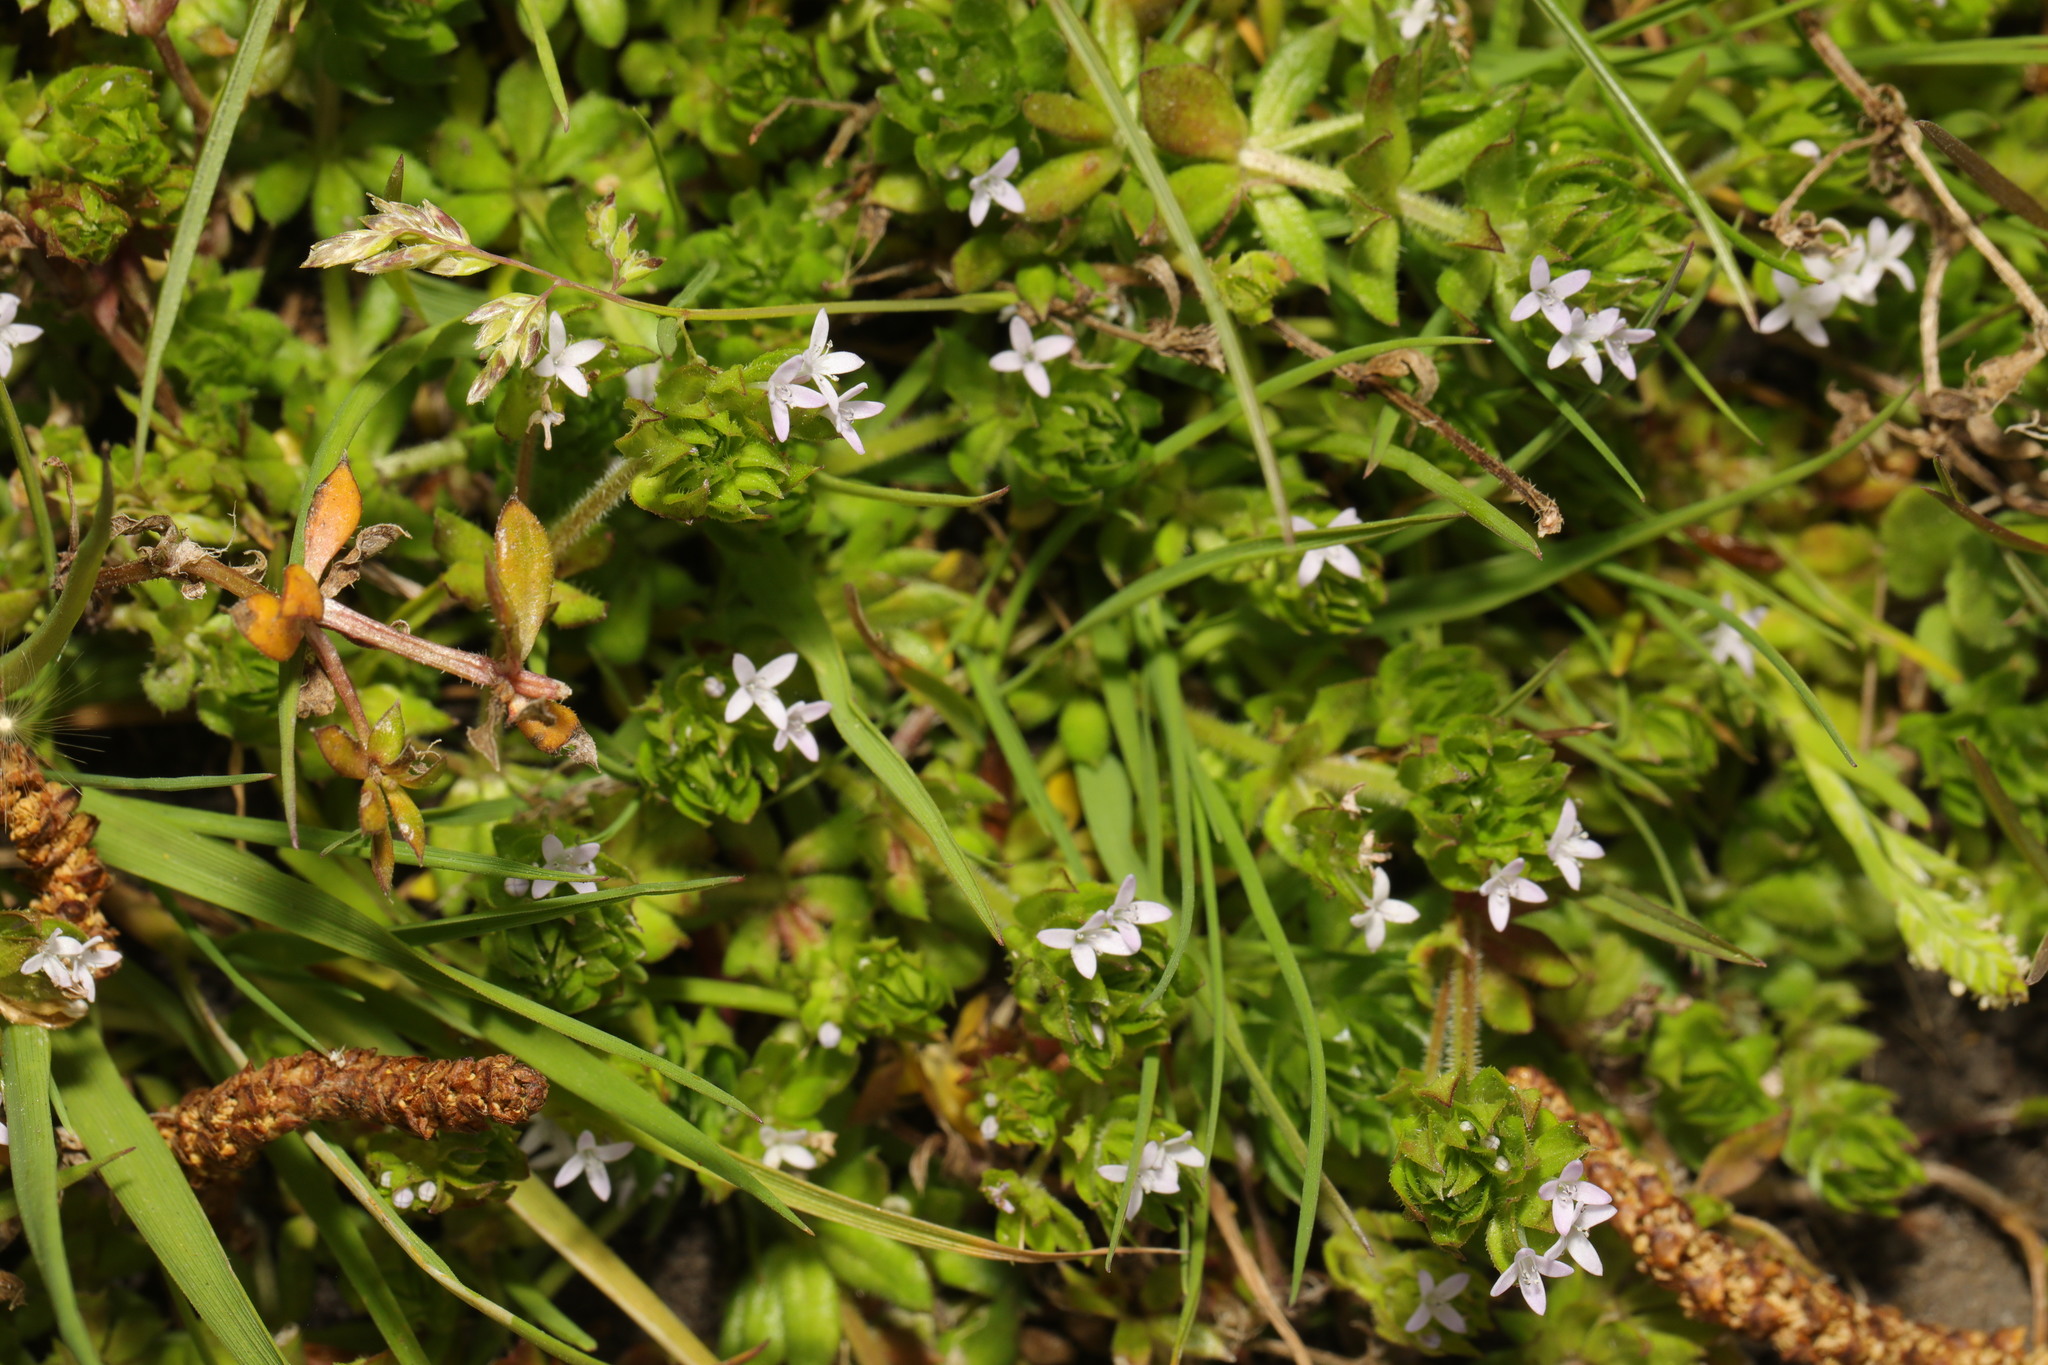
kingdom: Plantae
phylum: Tracheophyta
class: Magnoliopsida
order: Gentianales
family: Rubiaceae
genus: Sherardia
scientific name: Sherardia arvensis
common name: Field madder
